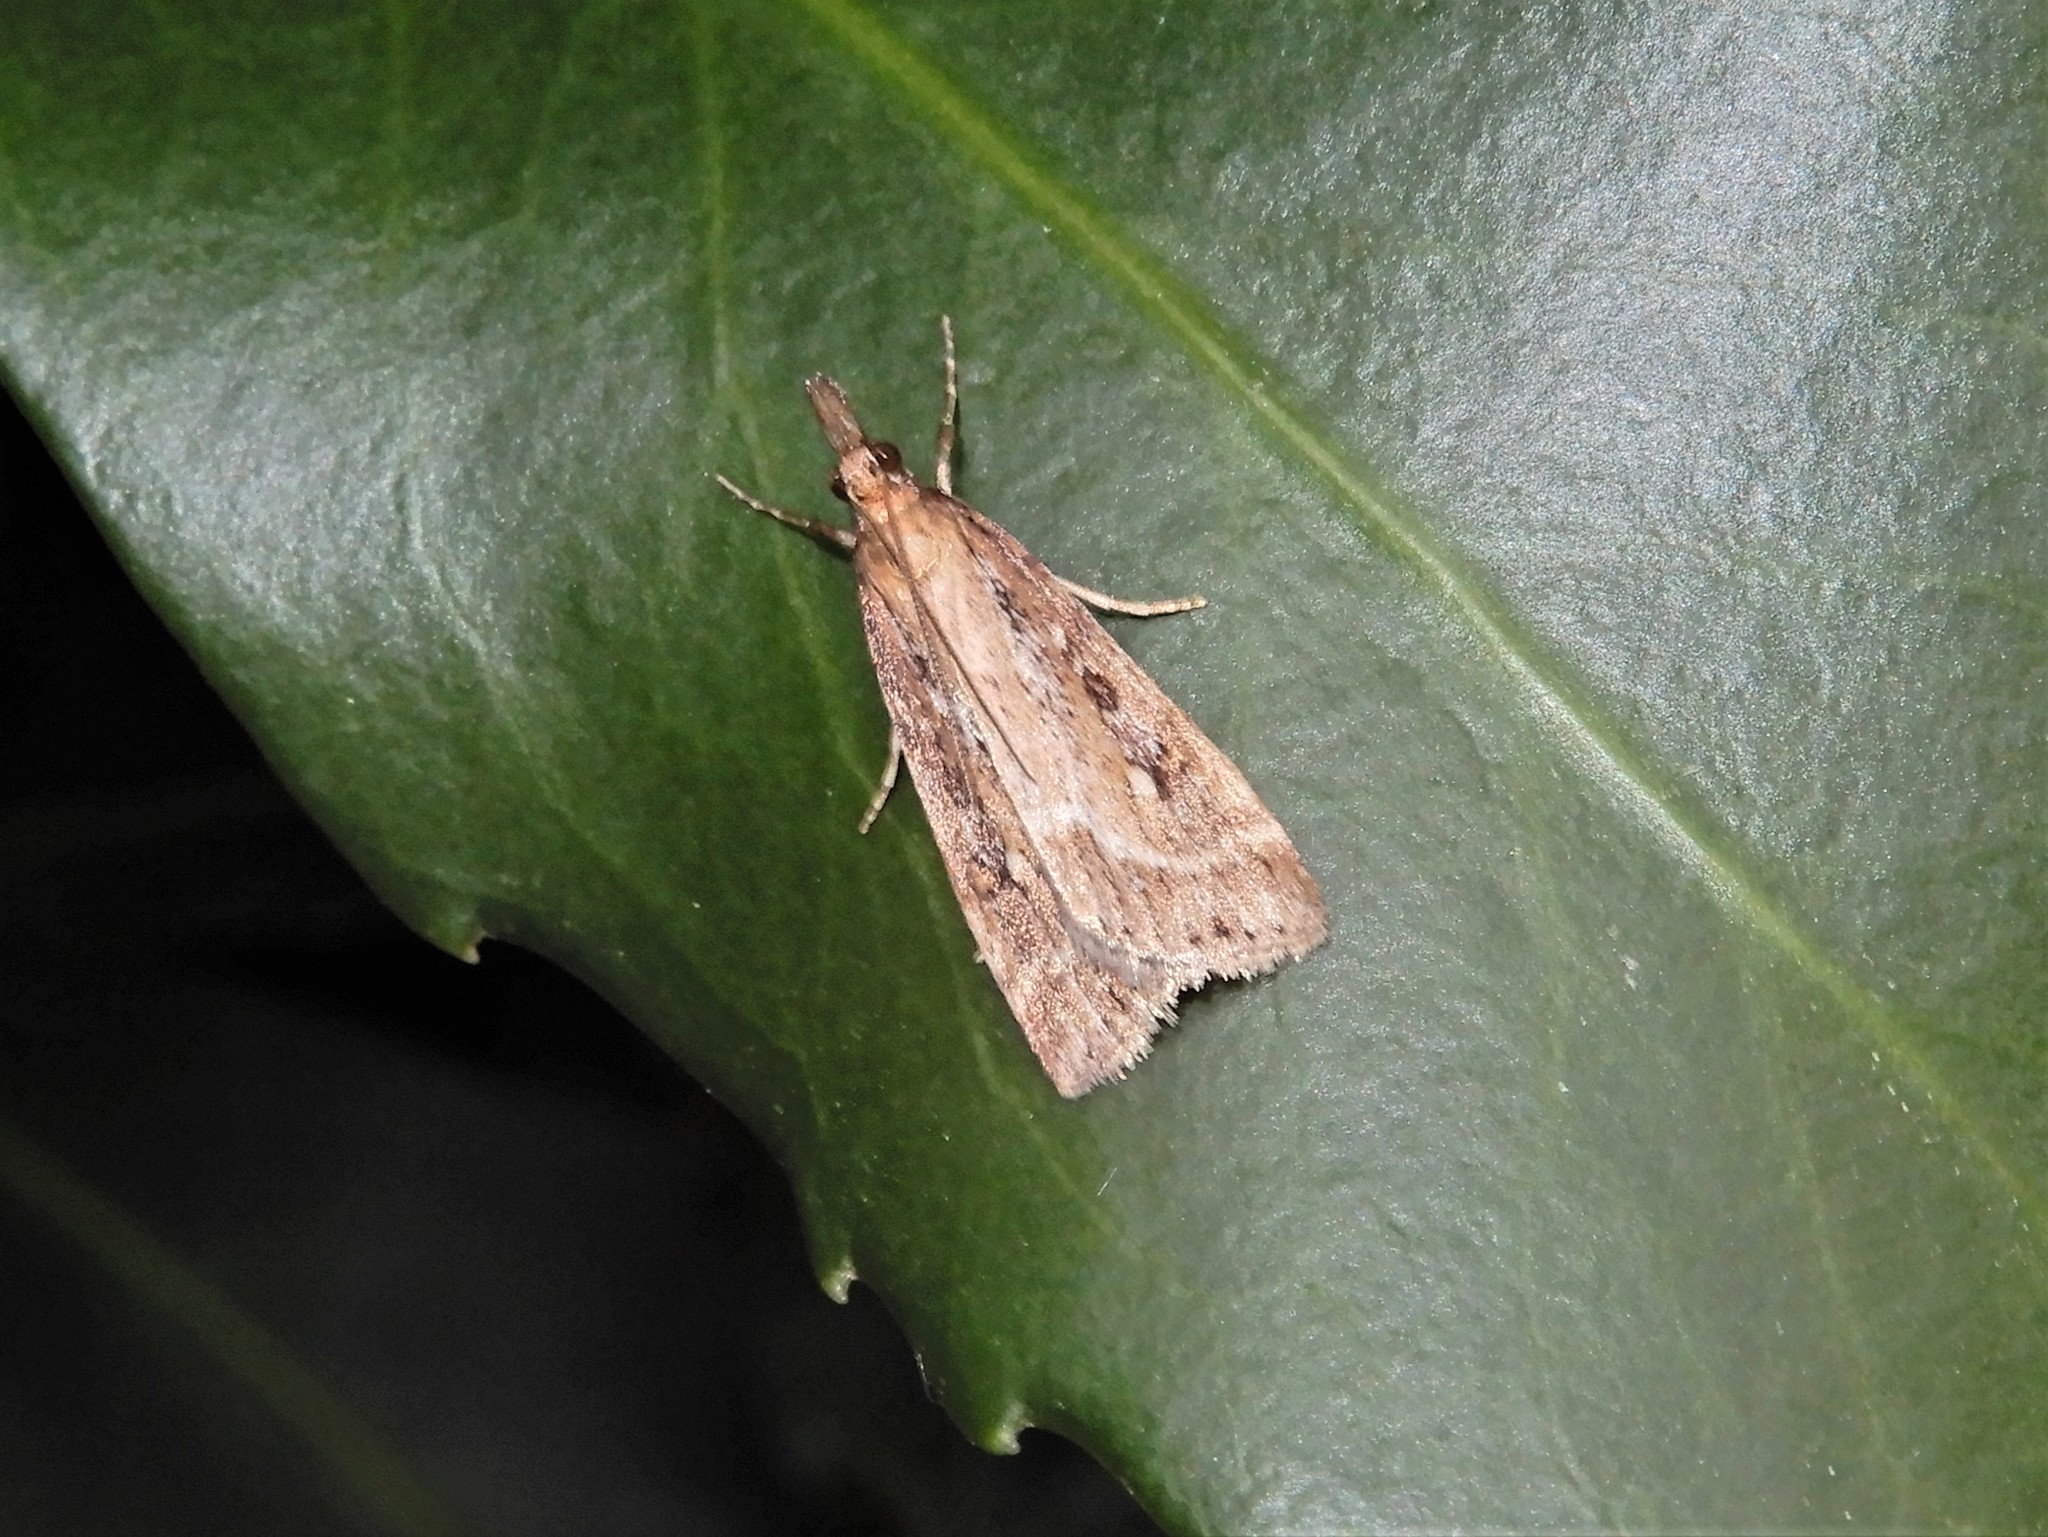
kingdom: Animalia
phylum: Arthropoda
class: Insecta
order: Lepidoptera
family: Crambidae
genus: Eudonia
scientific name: Eudonia octophora
